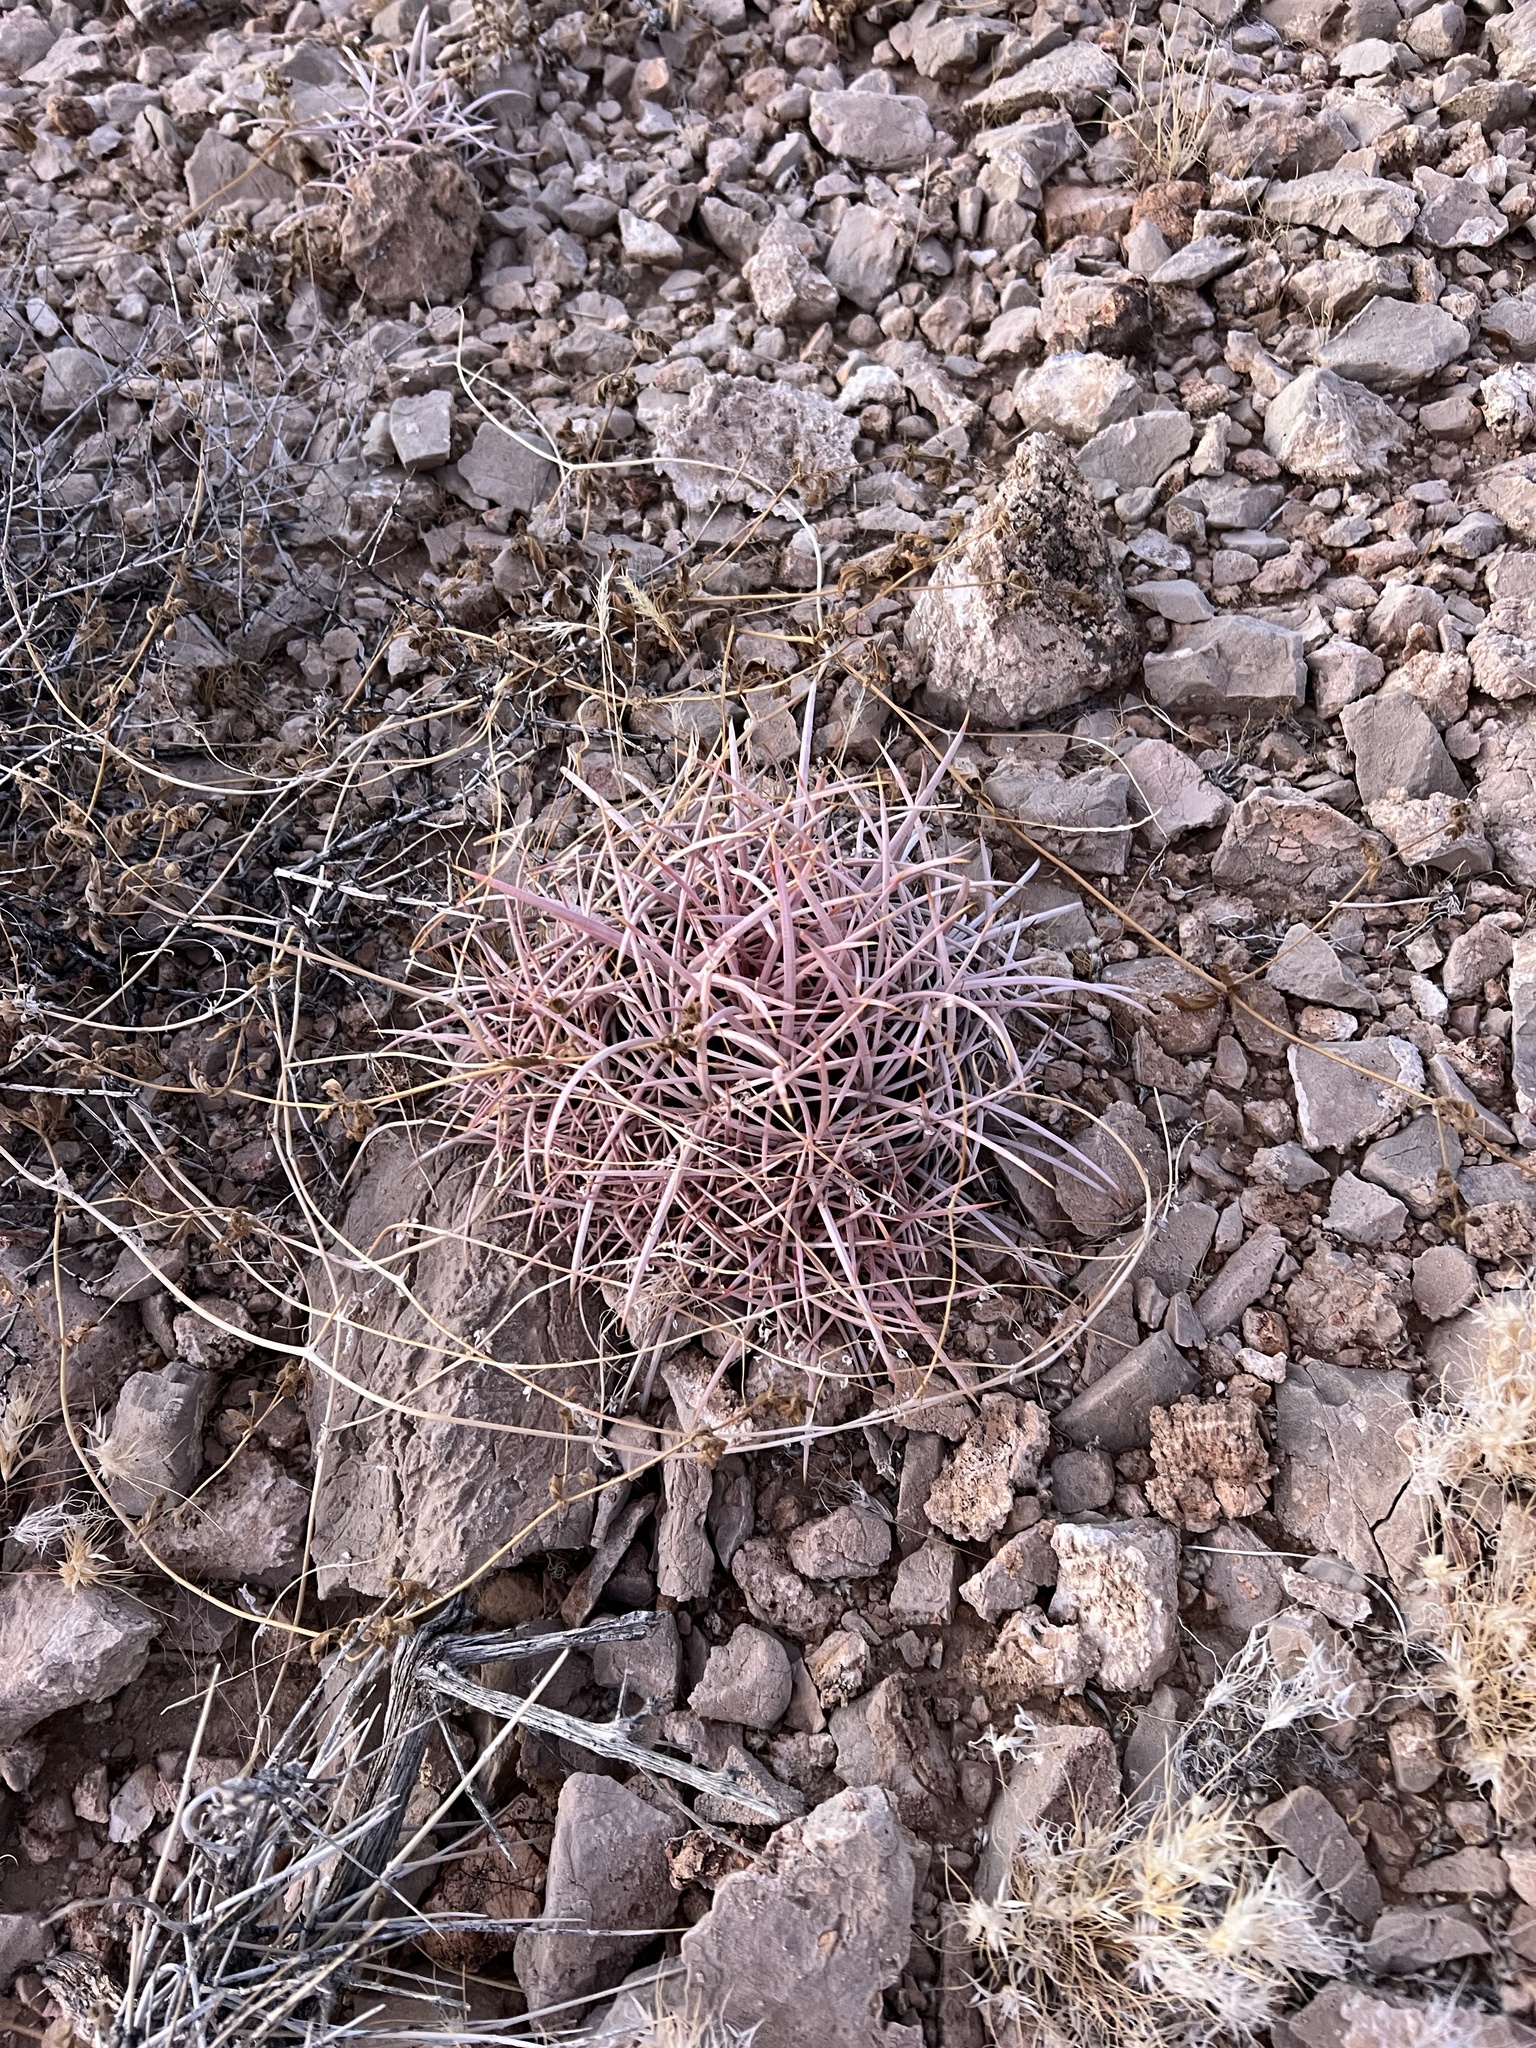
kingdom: Plantae
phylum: Tracheophyta
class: Magnoliopsida
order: Caryophyllales
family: Cactaceae
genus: Echinocactus
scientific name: Echinocactus polycephalus
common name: Cottontop cactus
